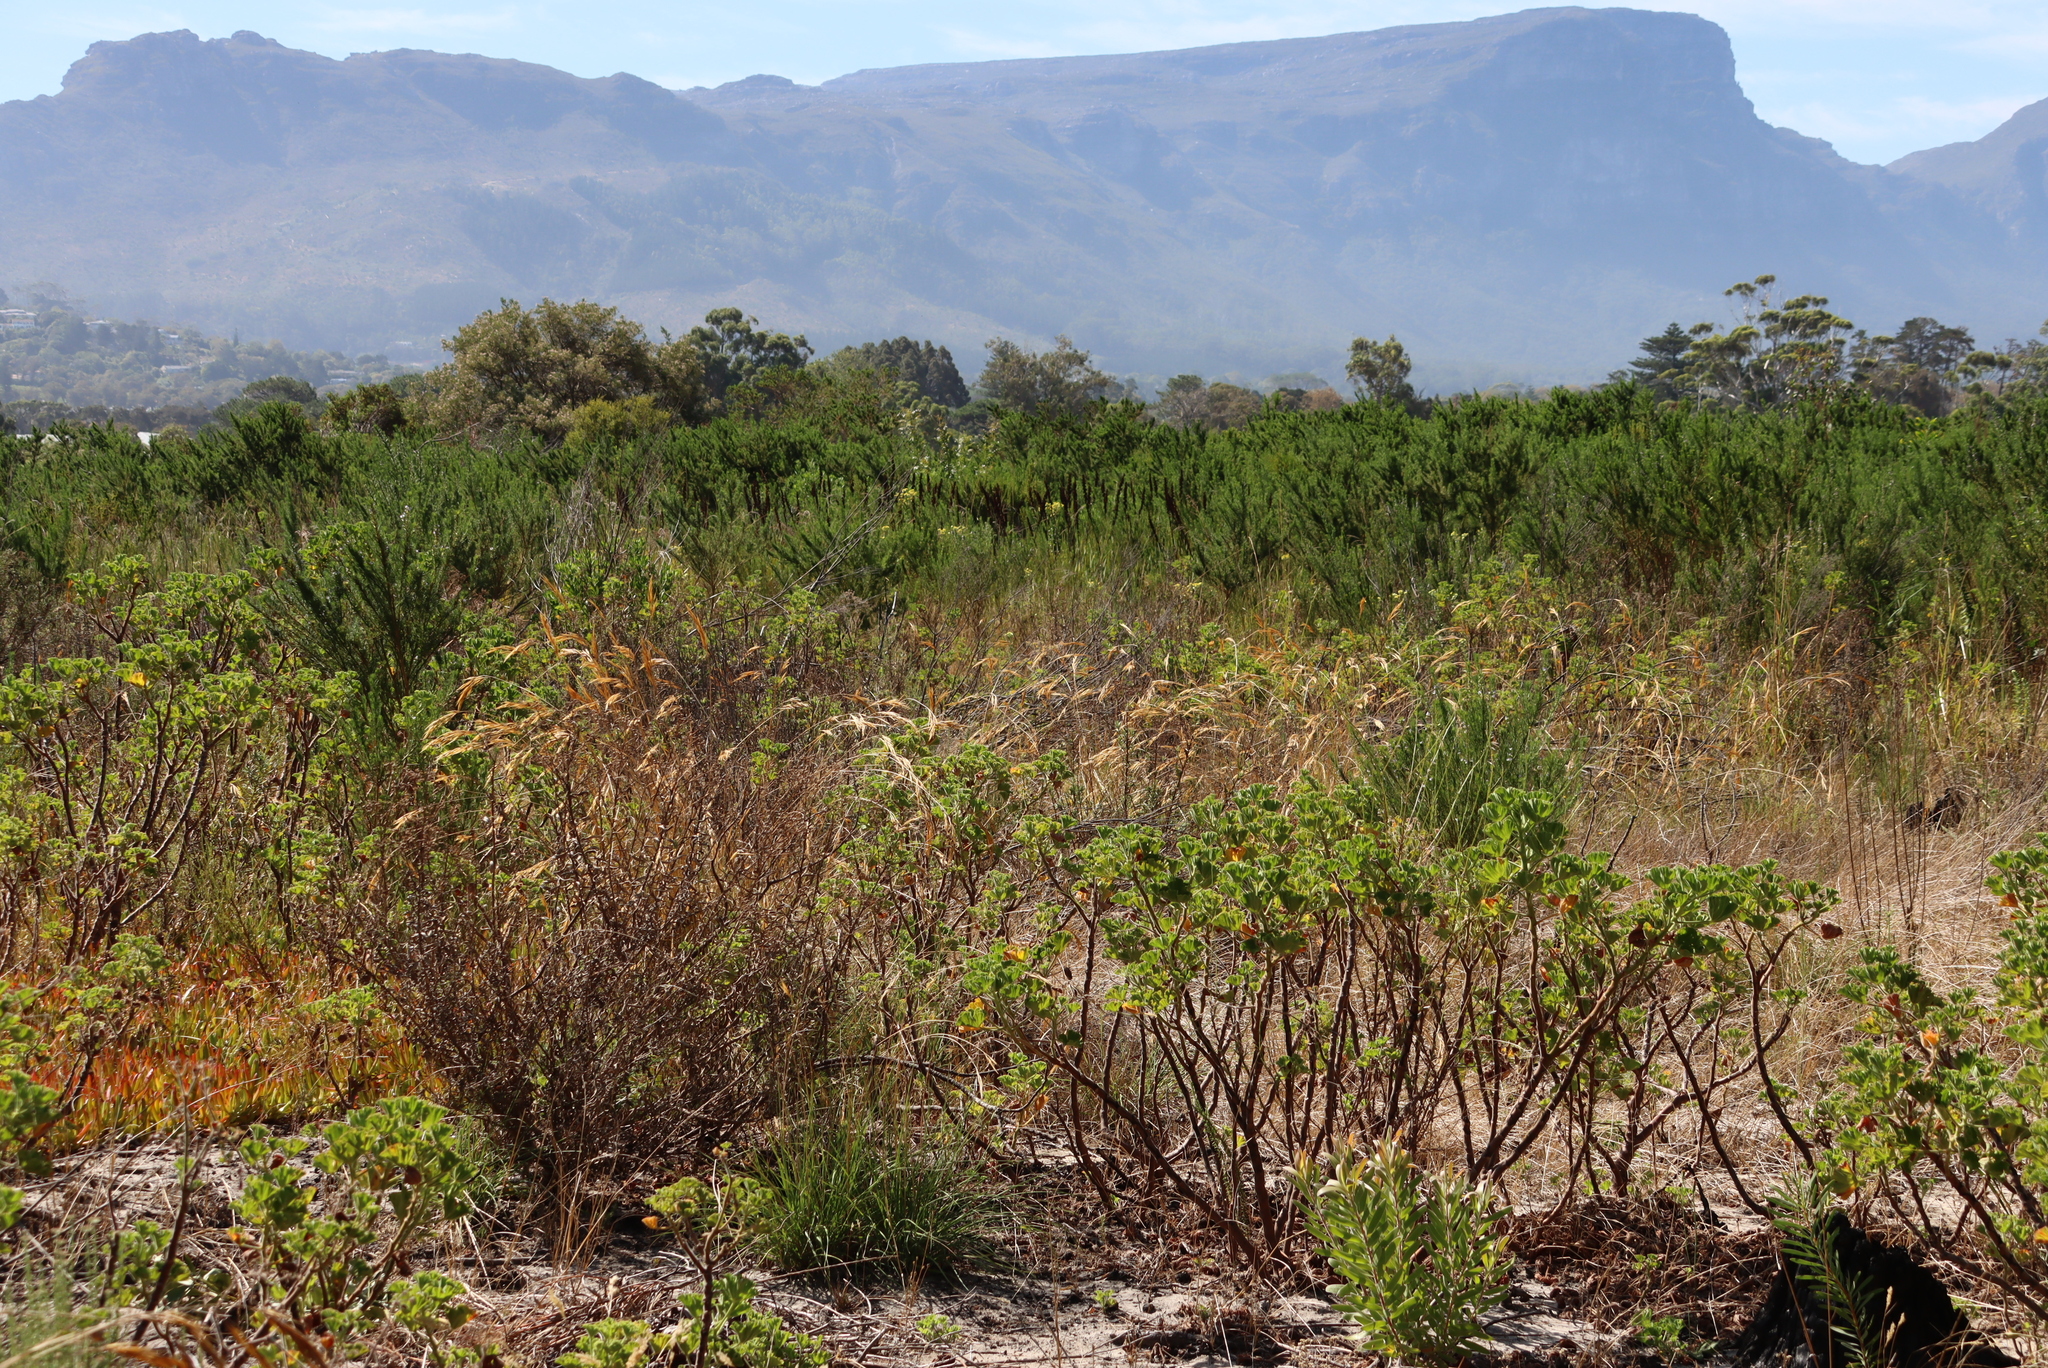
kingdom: Plantae
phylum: Tracheophyta
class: Magnoliopsida
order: Fabales
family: Fabaceae
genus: Psoralea
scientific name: Psoralea pinnata
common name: African scurfpea
